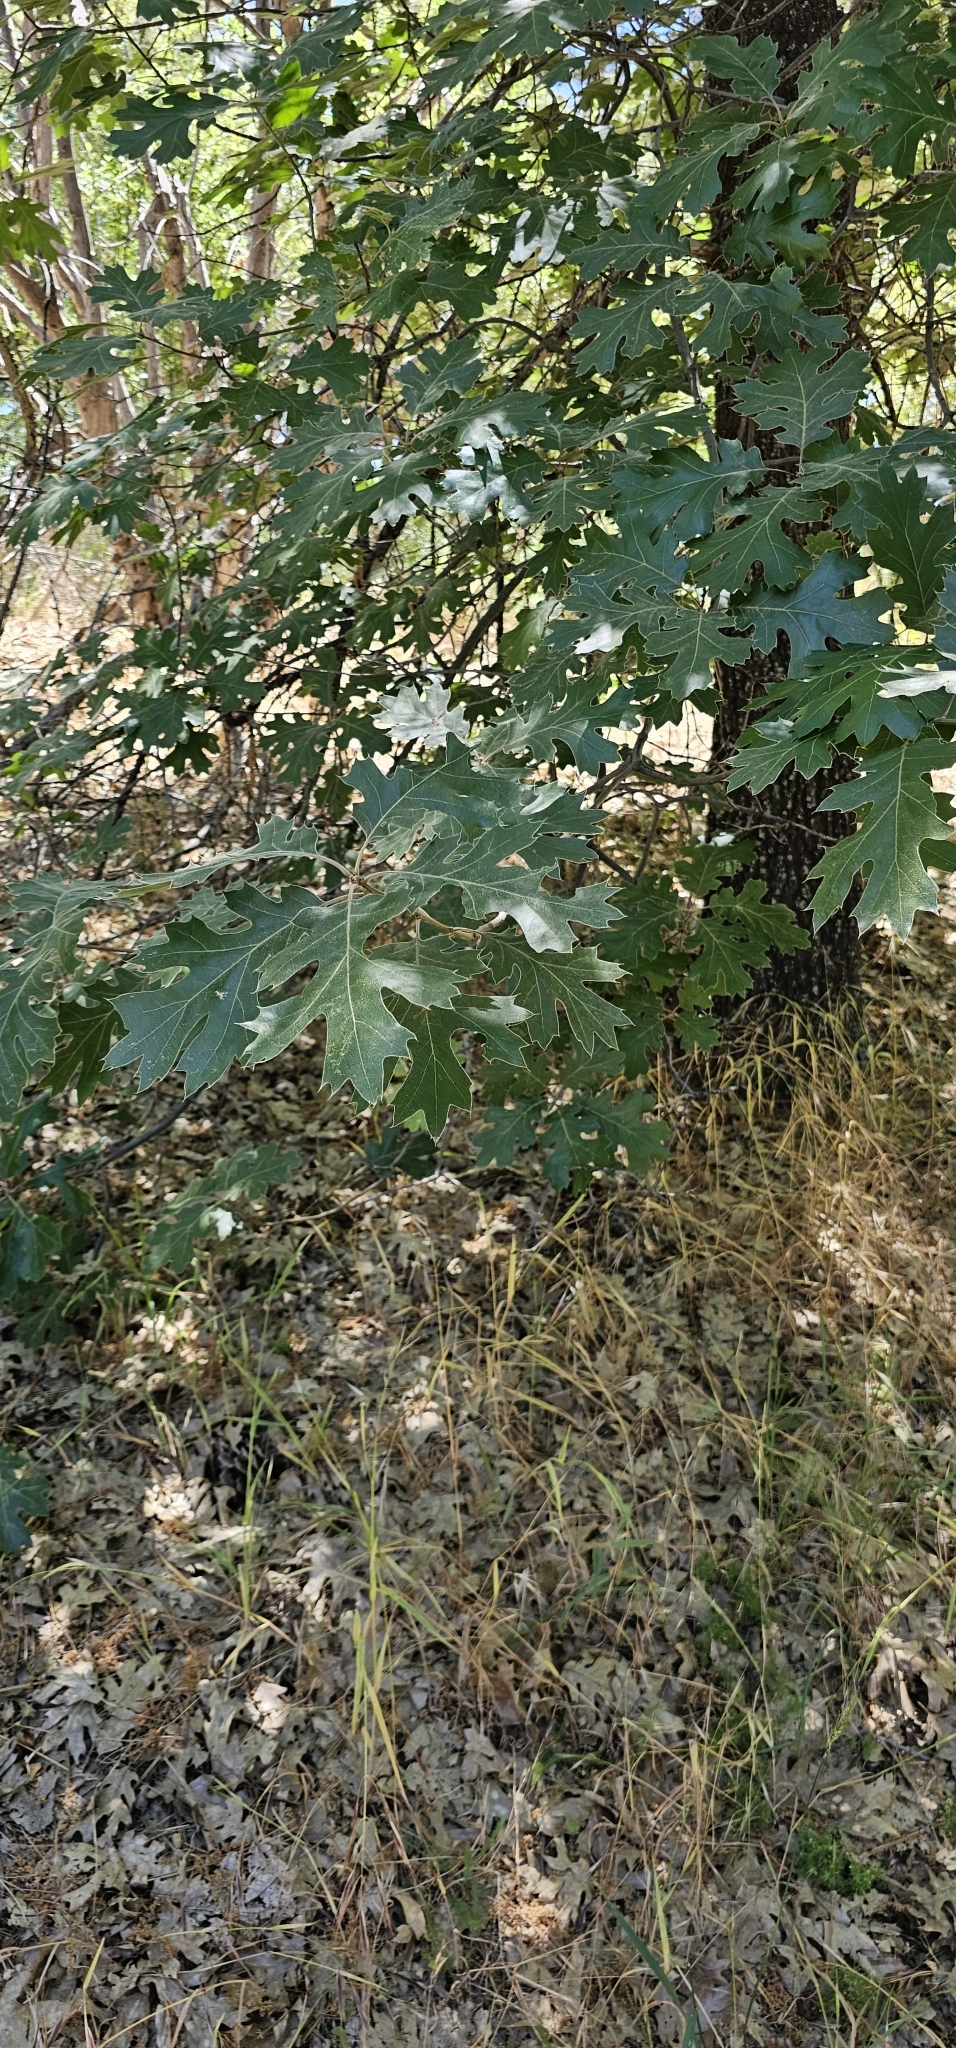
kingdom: Plantae
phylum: Tracheophyta
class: Magnoliopsida
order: Fagales
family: Fagaceae
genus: Quercus
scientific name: Quercus kelloggii
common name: California black oak
